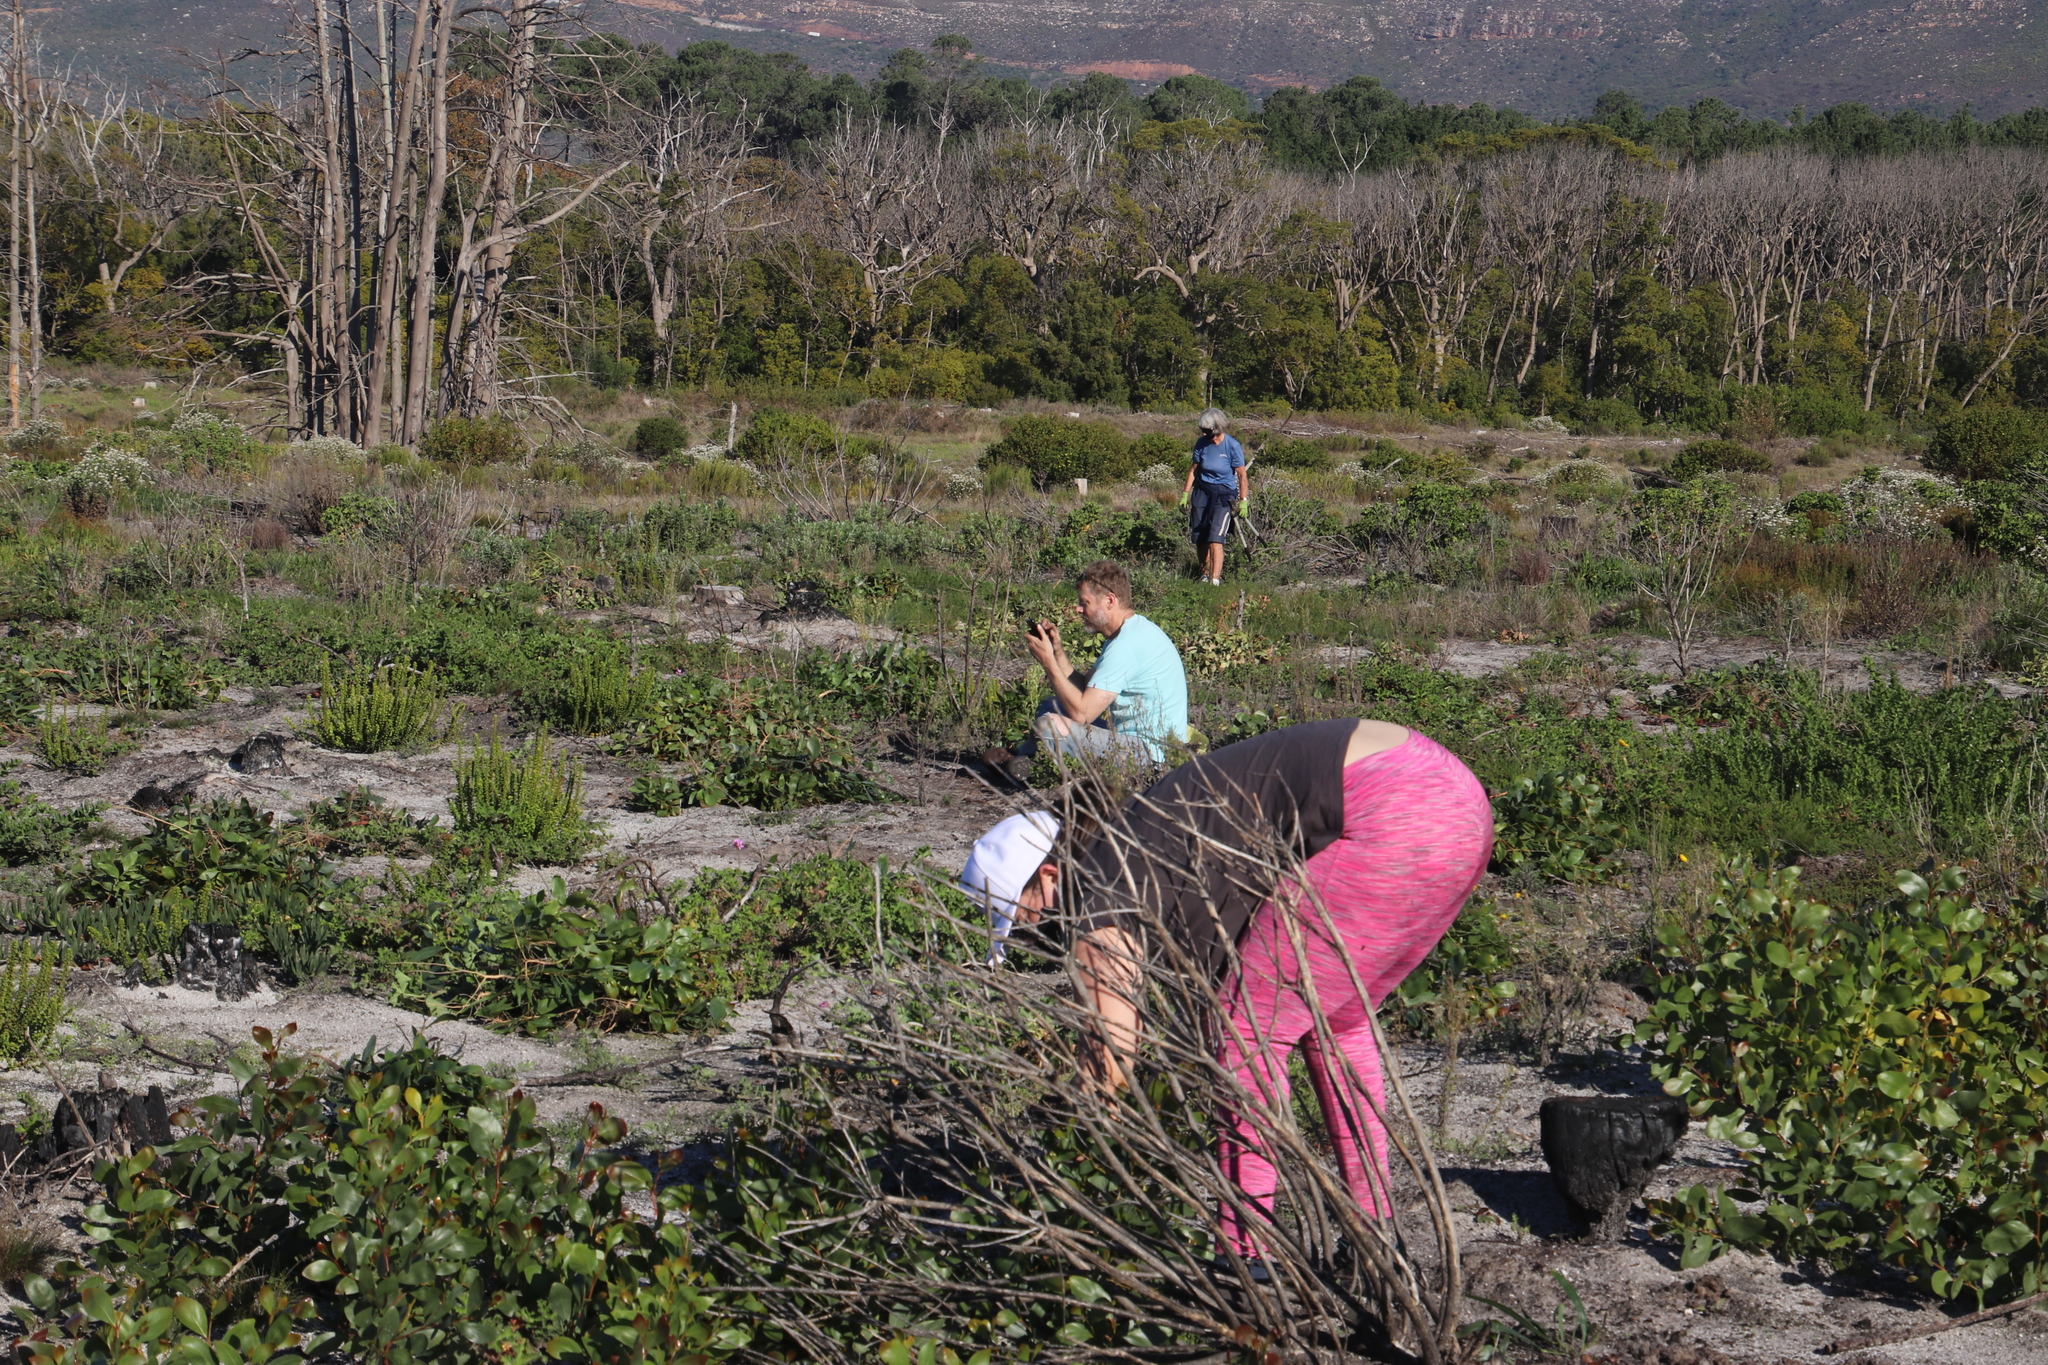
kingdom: Plantae
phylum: Tracheophyta
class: Magnoliopsida
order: Fabales
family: Fabaceae
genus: Acacia
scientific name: Acacia pycnantha
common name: Golden wattle
